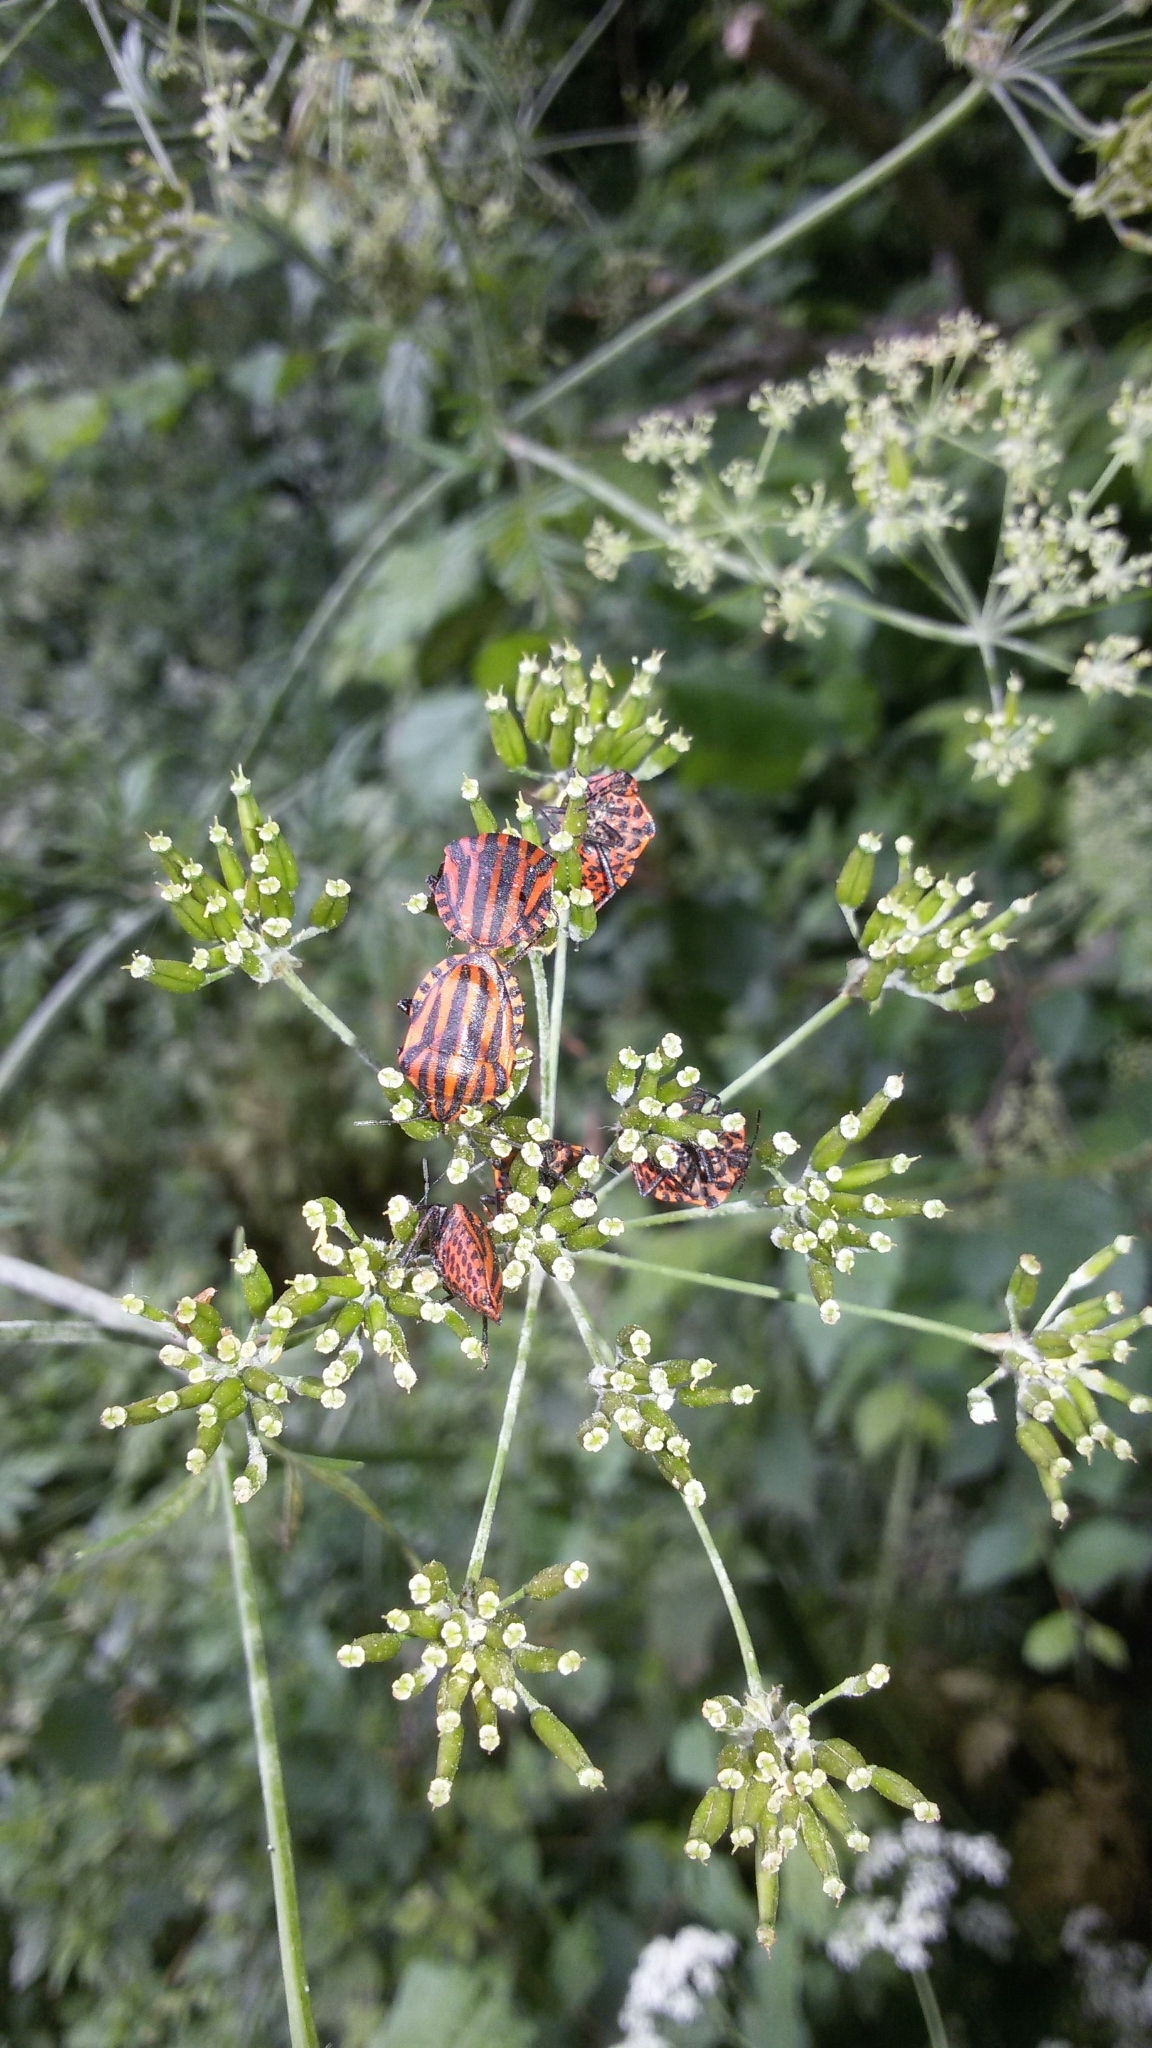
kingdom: Animalia
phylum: Arthropoda
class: Insecta
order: Hemiptera
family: Pentatomidae
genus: Graphosoma
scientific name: Graphosoma italicum
